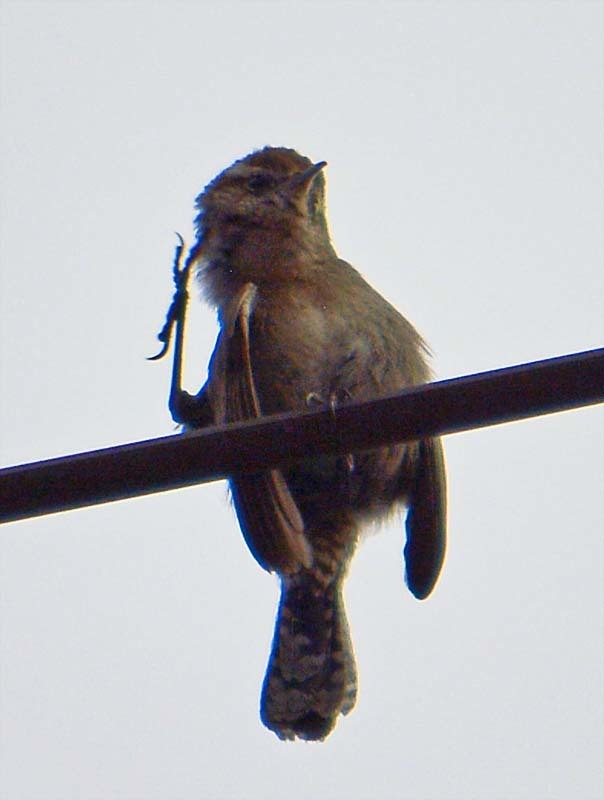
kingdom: Animalia
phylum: Chordata
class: Aves
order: Passeriformes
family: Troglodytidae
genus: Thryomanes
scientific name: Thryomanes bewickii
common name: Bewick's wren
